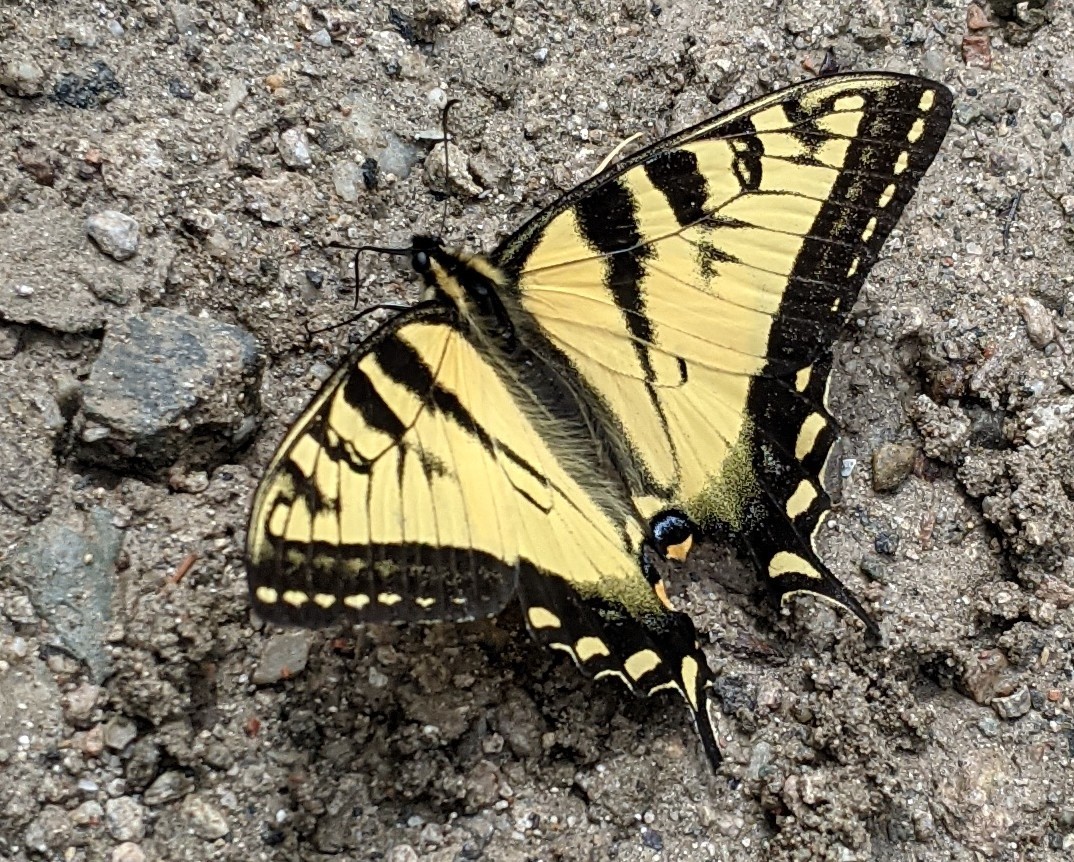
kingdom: Animalia
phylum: Arthropoda
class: Insecta
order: Lepidoptera
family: Papilionidae
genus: Papilio
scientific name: Papilio canadensis
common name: Canadian tiger swallowtail
